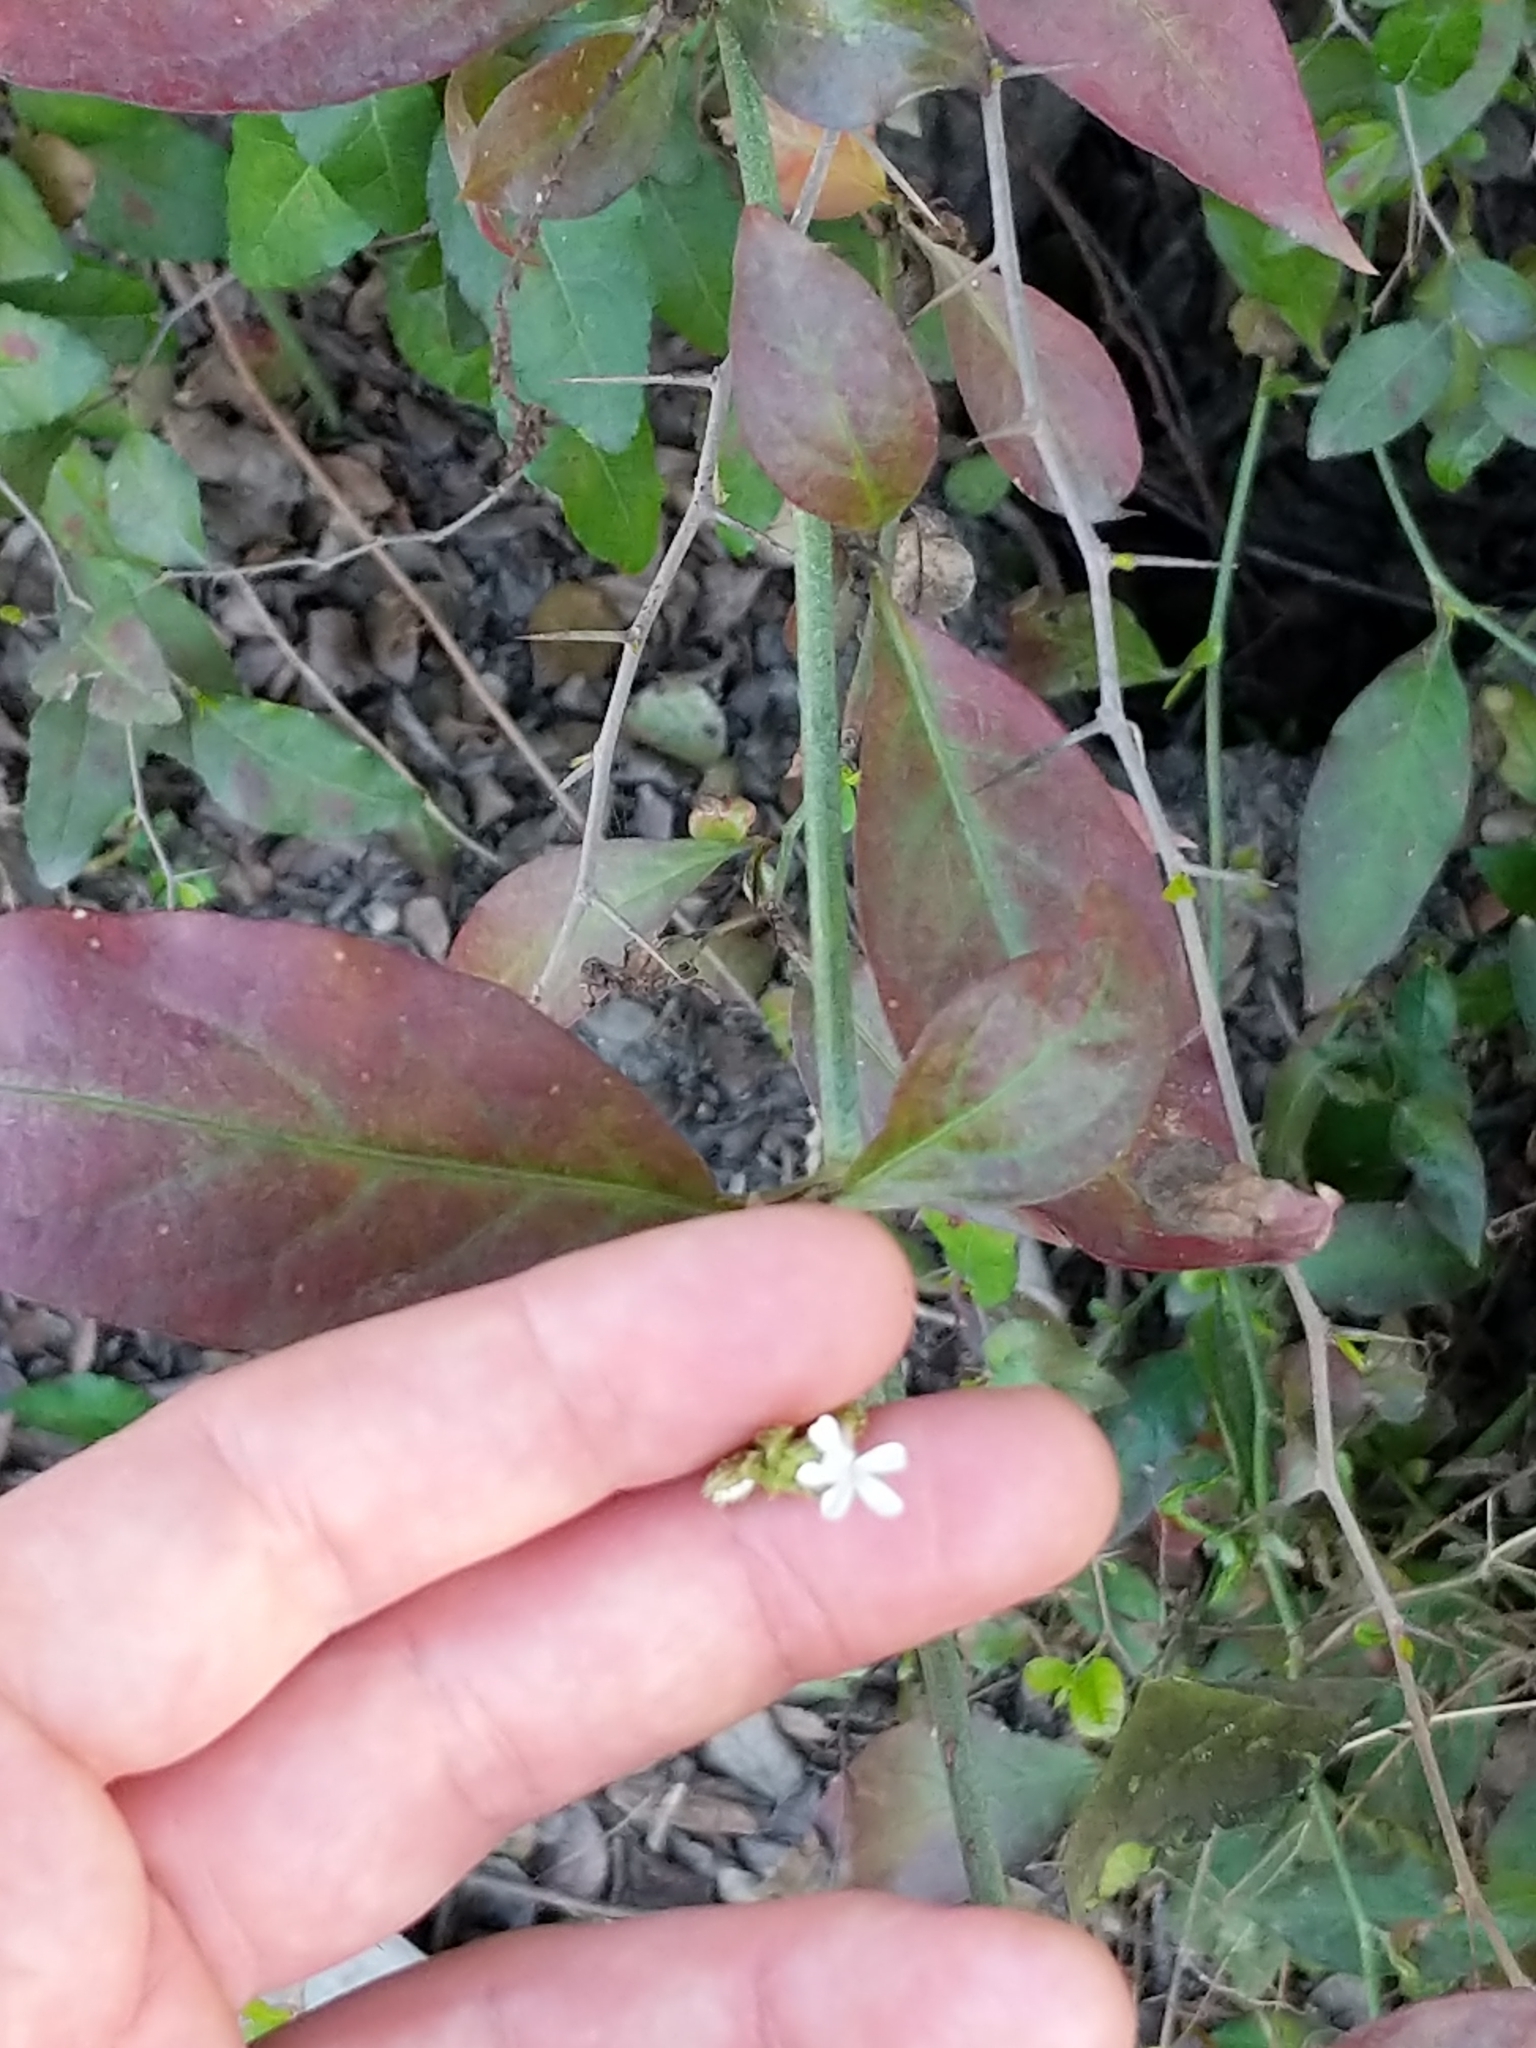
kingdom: Plantae
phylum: Tracheophyta
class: Magnoliopsida
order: Caryophyllales
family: Plumbaginaceae
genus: Plumbago
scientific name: Plumbago zeylanica
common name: Doctorbush
